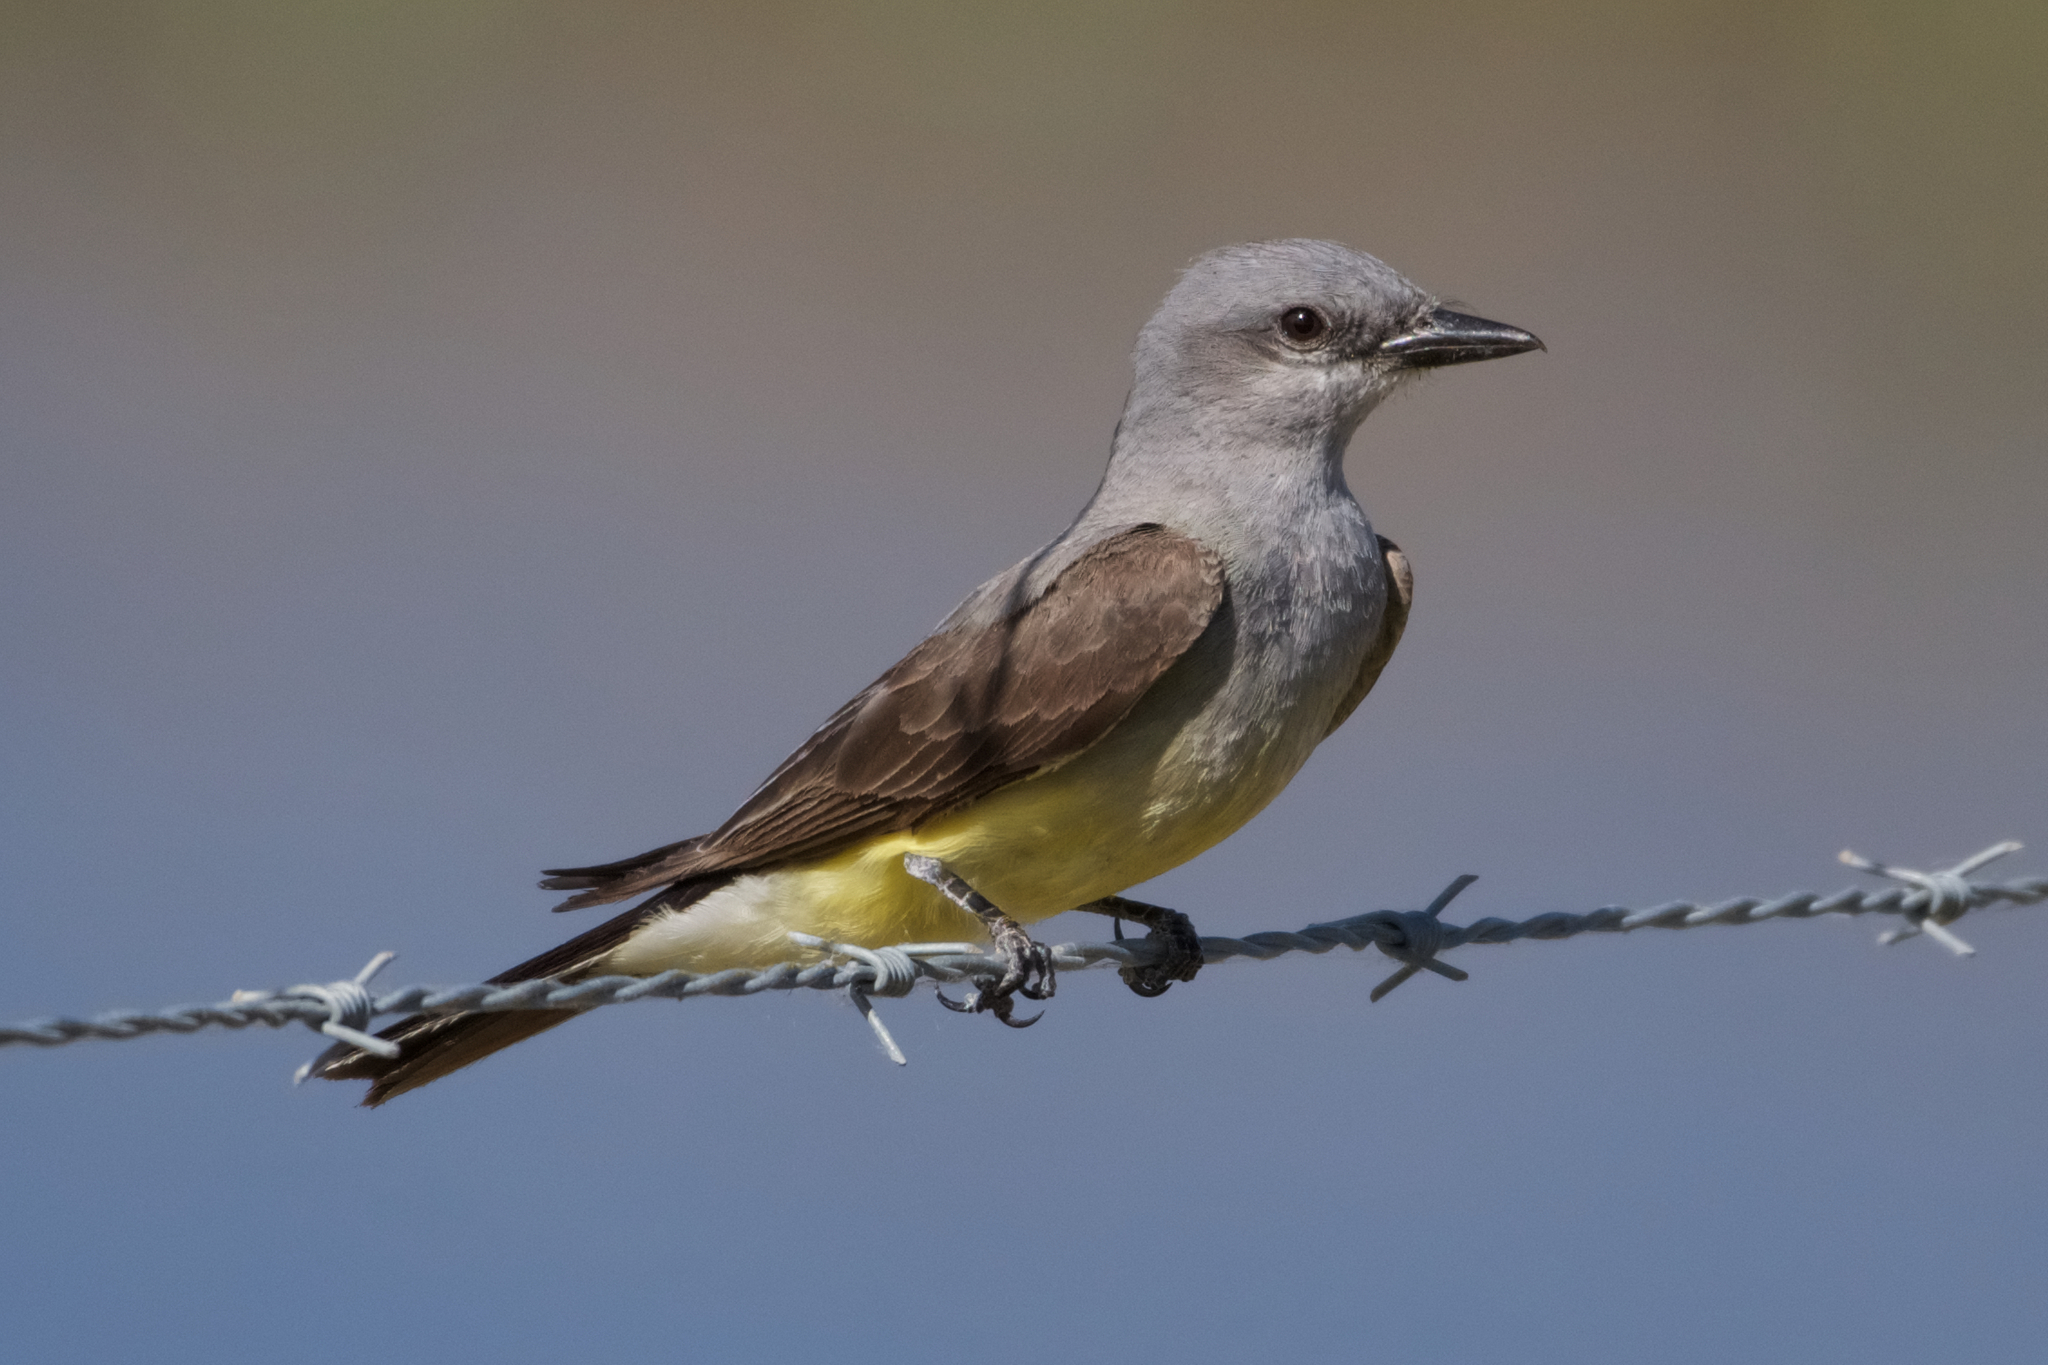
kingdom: Animalia
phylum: Chordata
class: Aves
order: Passeriformes
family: Tyrannidae
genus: Tyrannus
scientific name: Tyrannus verticalis
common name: Western kingbird
